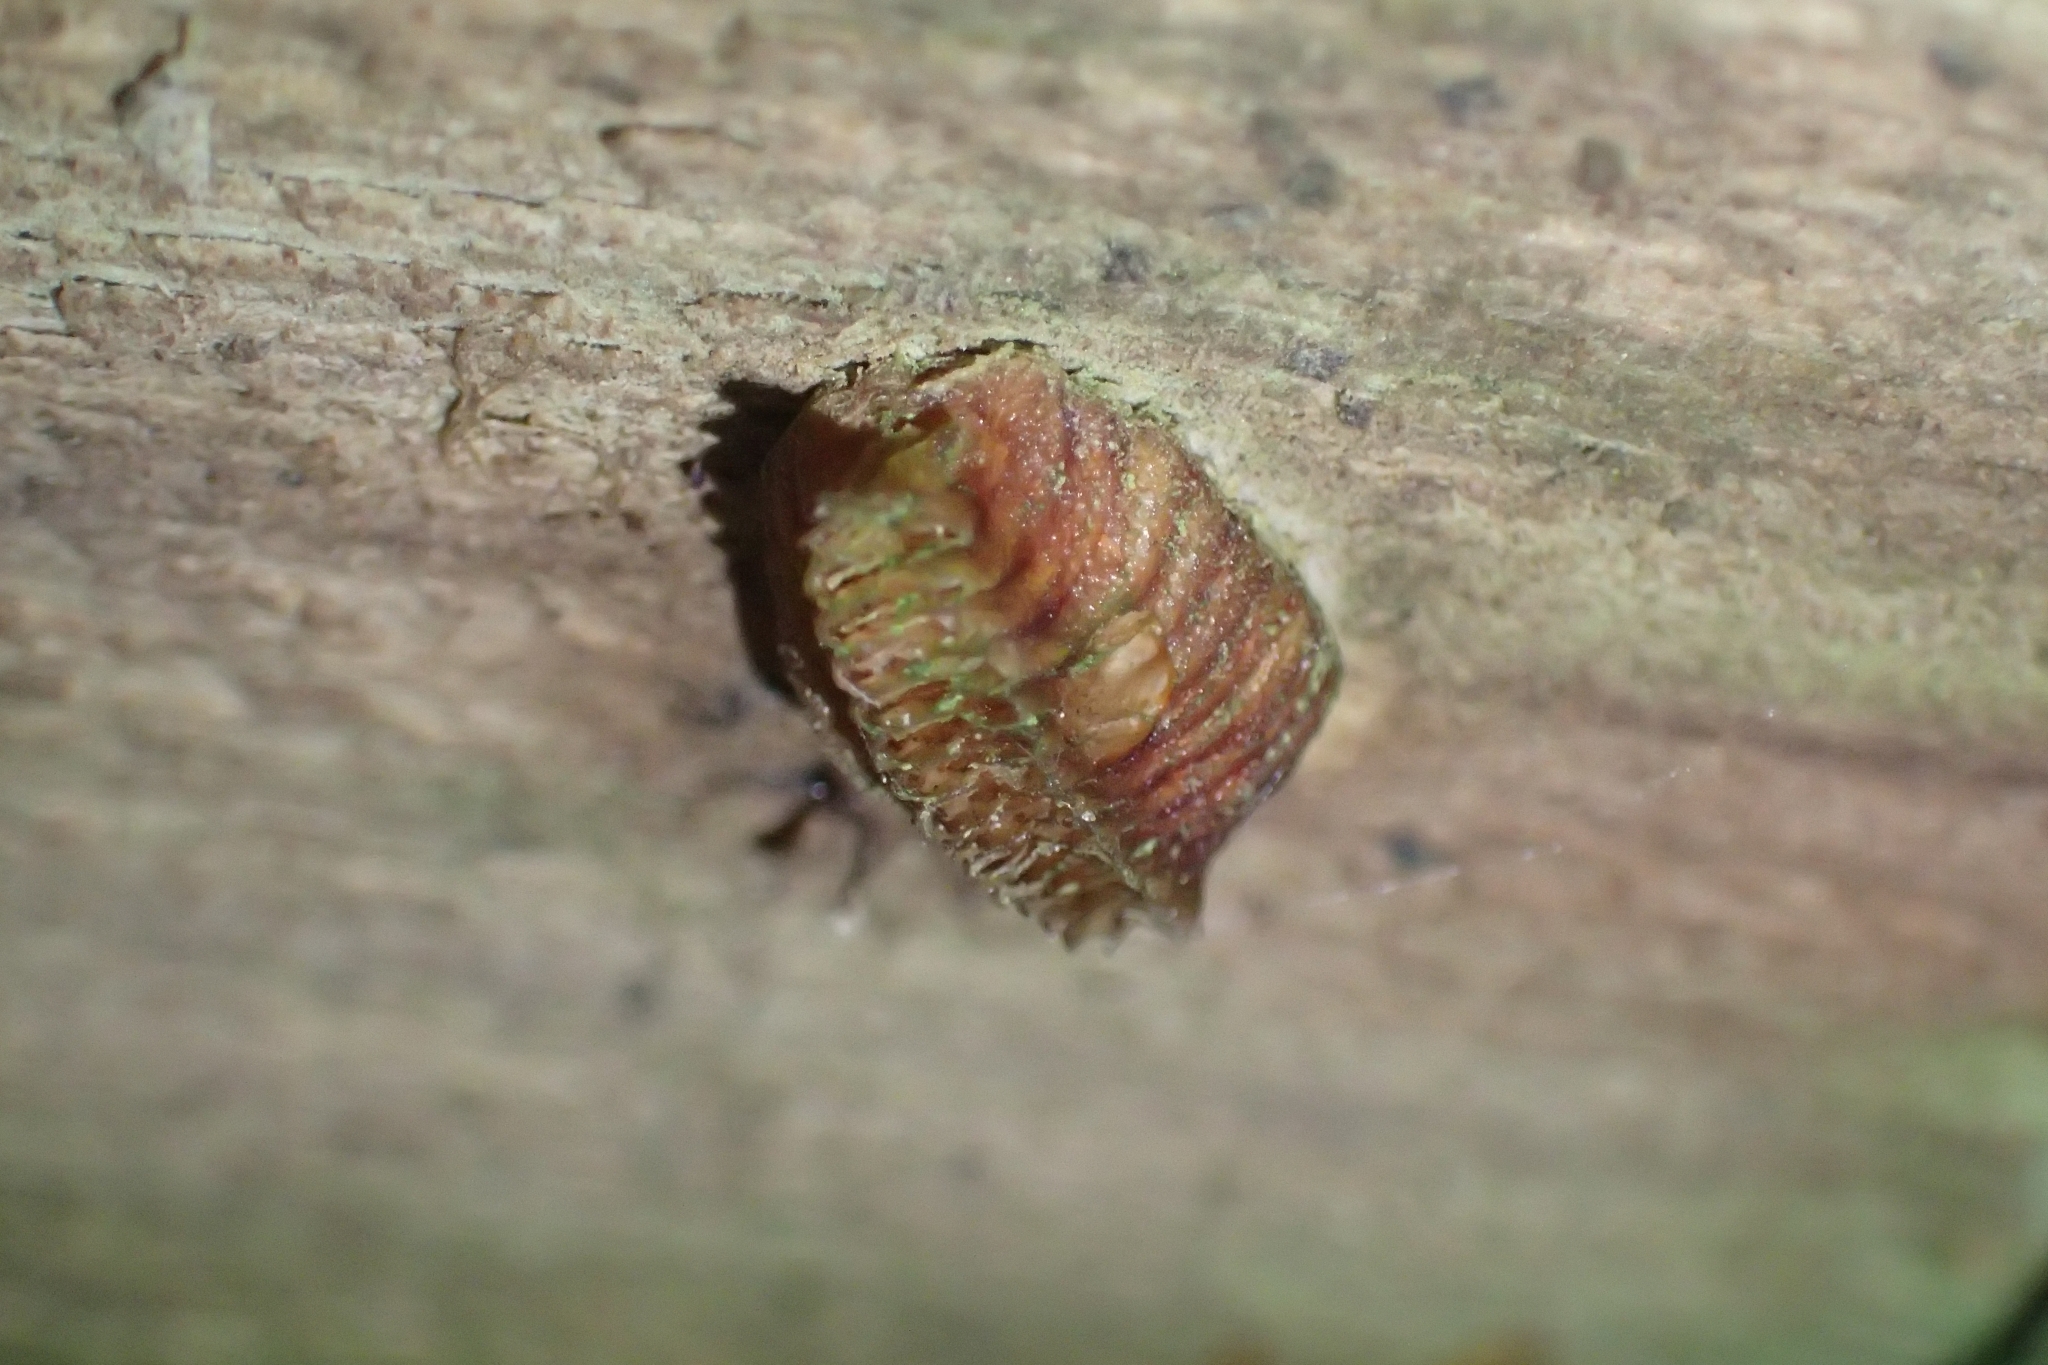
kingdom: Animalia
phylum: Arthropoda
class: Insecta
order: Mantodea
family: Miomantidae
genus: Miomantis
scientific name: Miomantis caffra
